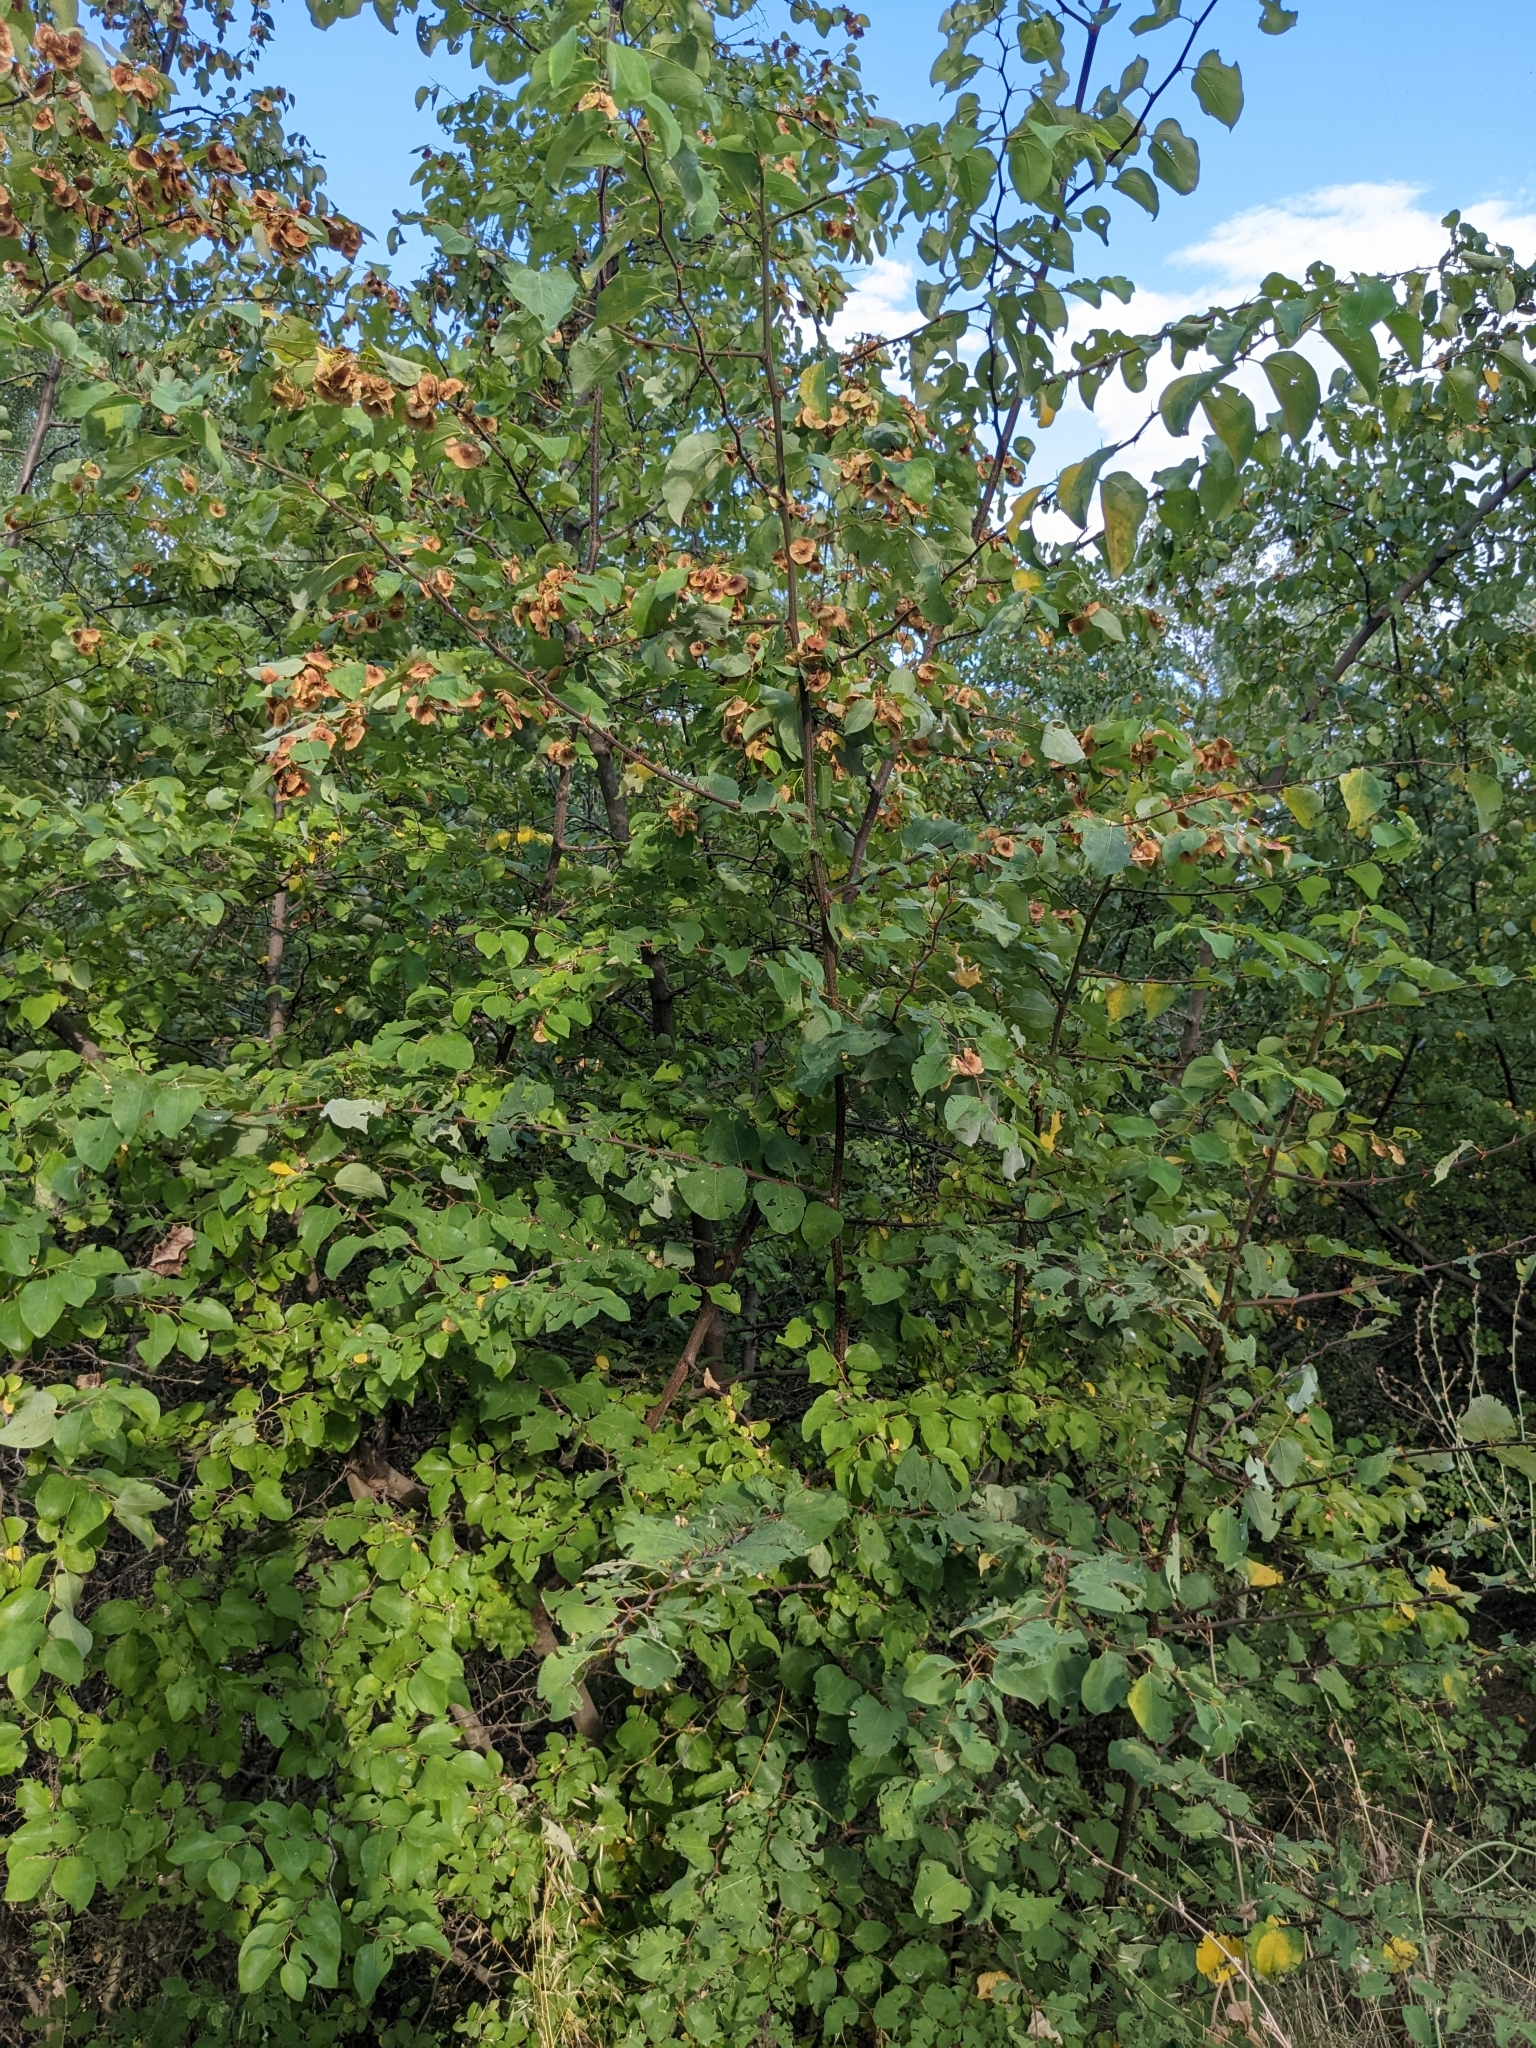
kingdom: Plantae
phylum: Tracheophyta
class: Magnoliopsida
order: Rosales
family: Rhamnaceae
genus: Paliurus
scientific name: Paliurus spina-christi
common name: Jeruselem thorn
